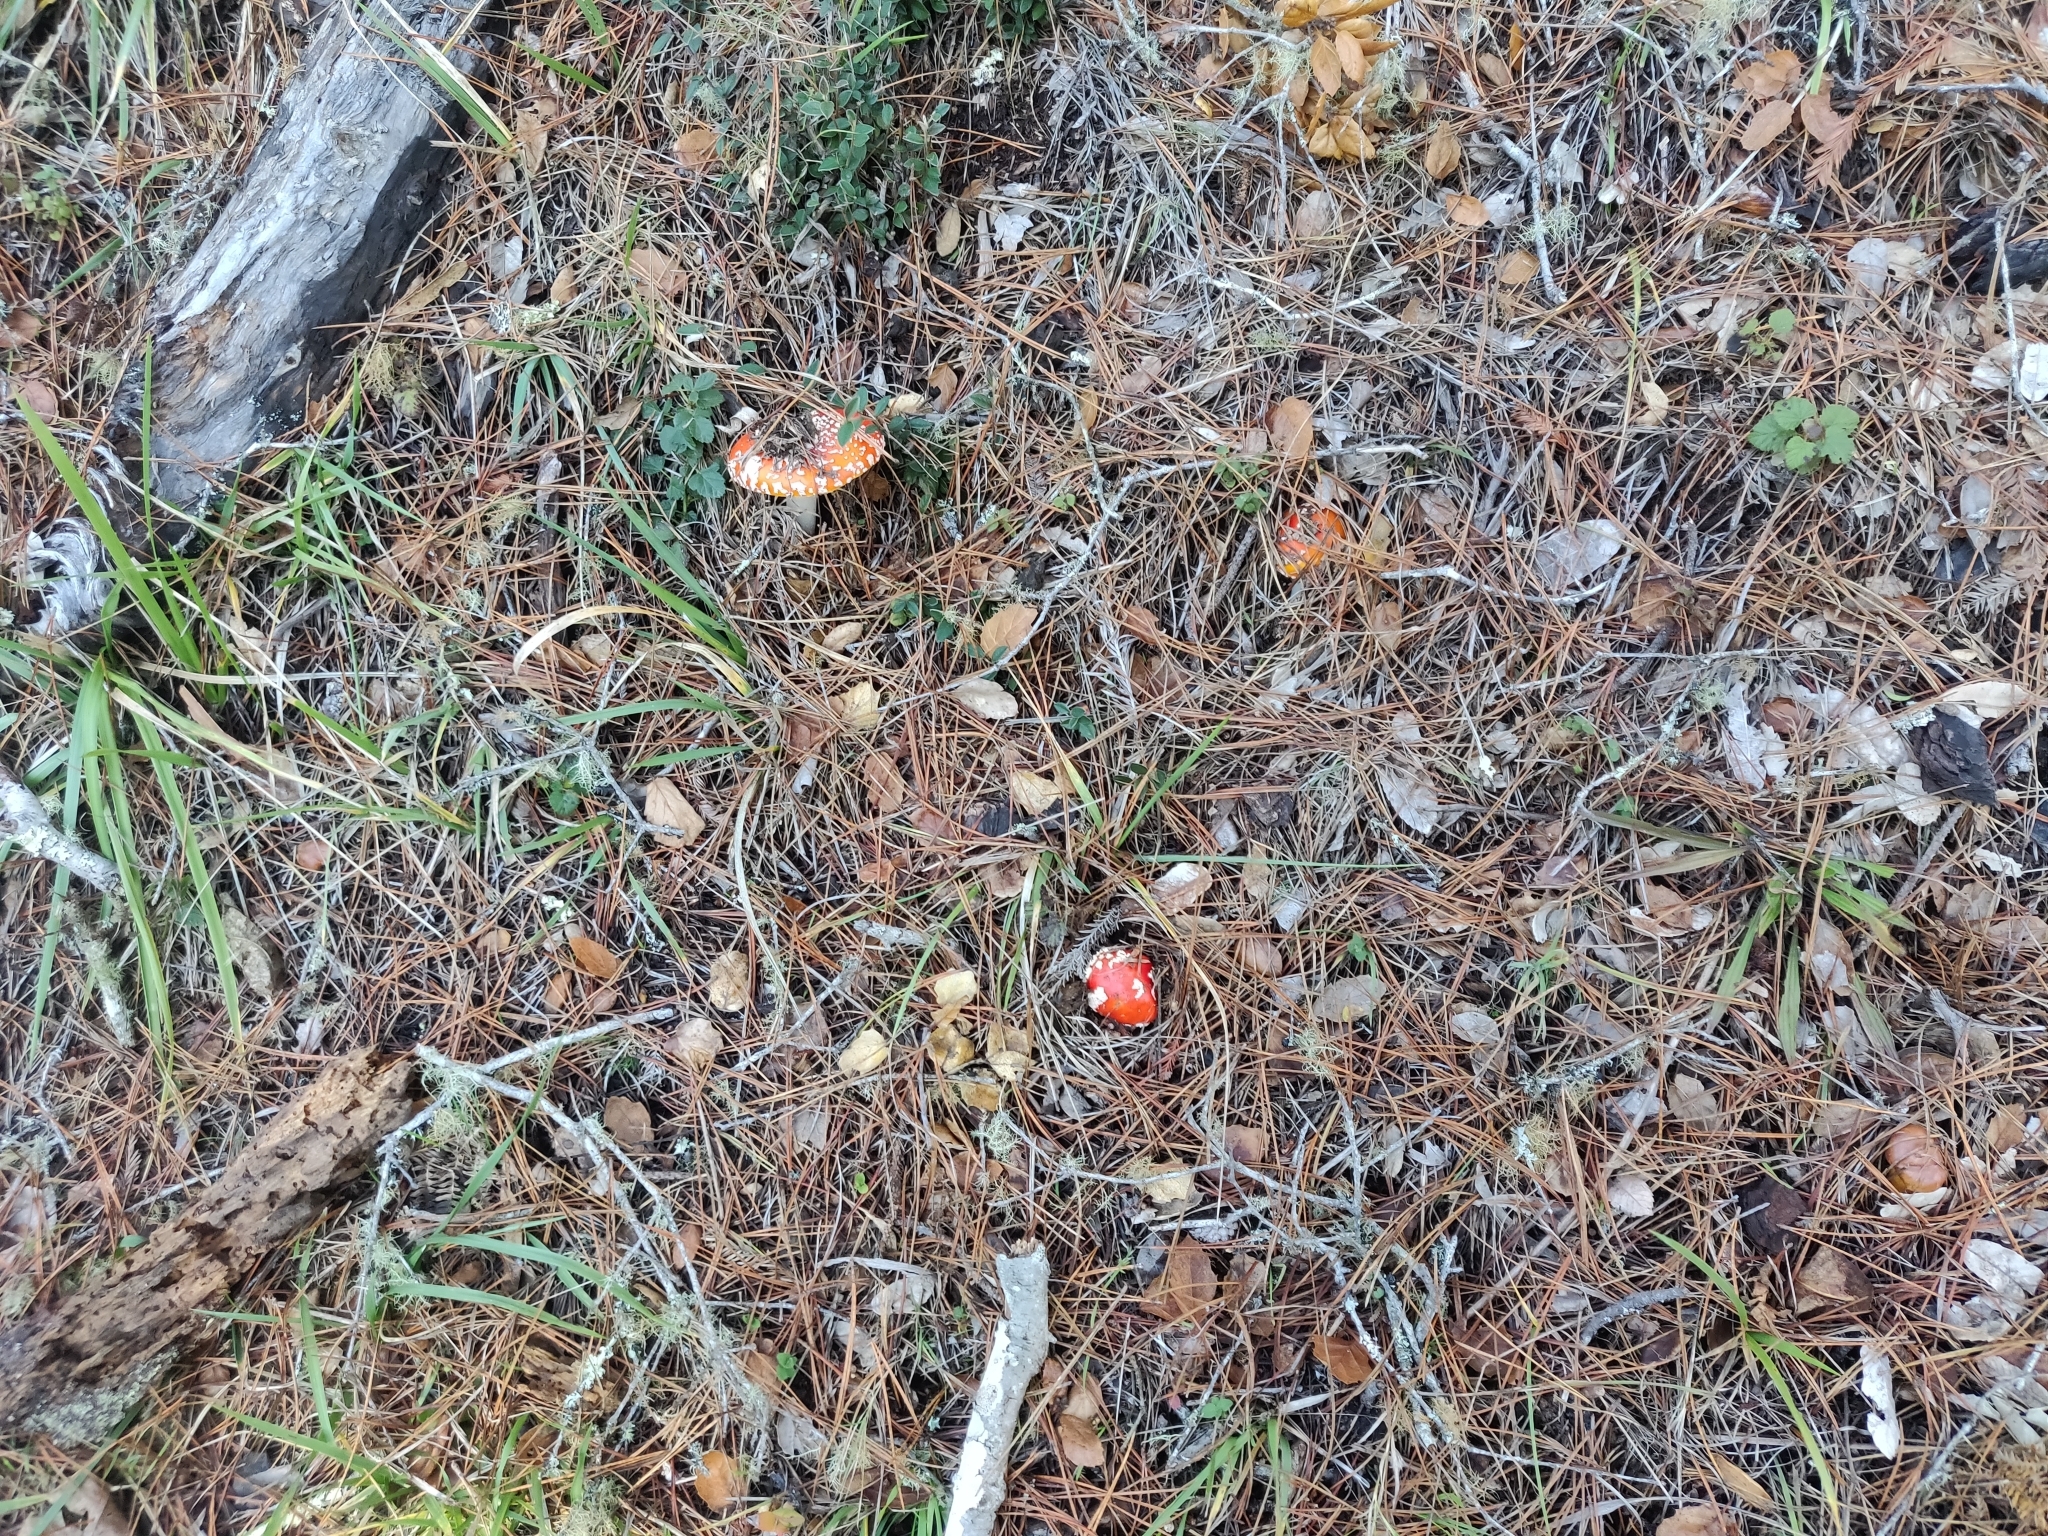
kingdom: Fungi
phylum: Basidiomycota
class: Agaricomycetes
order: Agaricales
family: Amanitaceae
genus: Amanita
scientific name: Amanita muscaria
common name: Fly agaric
